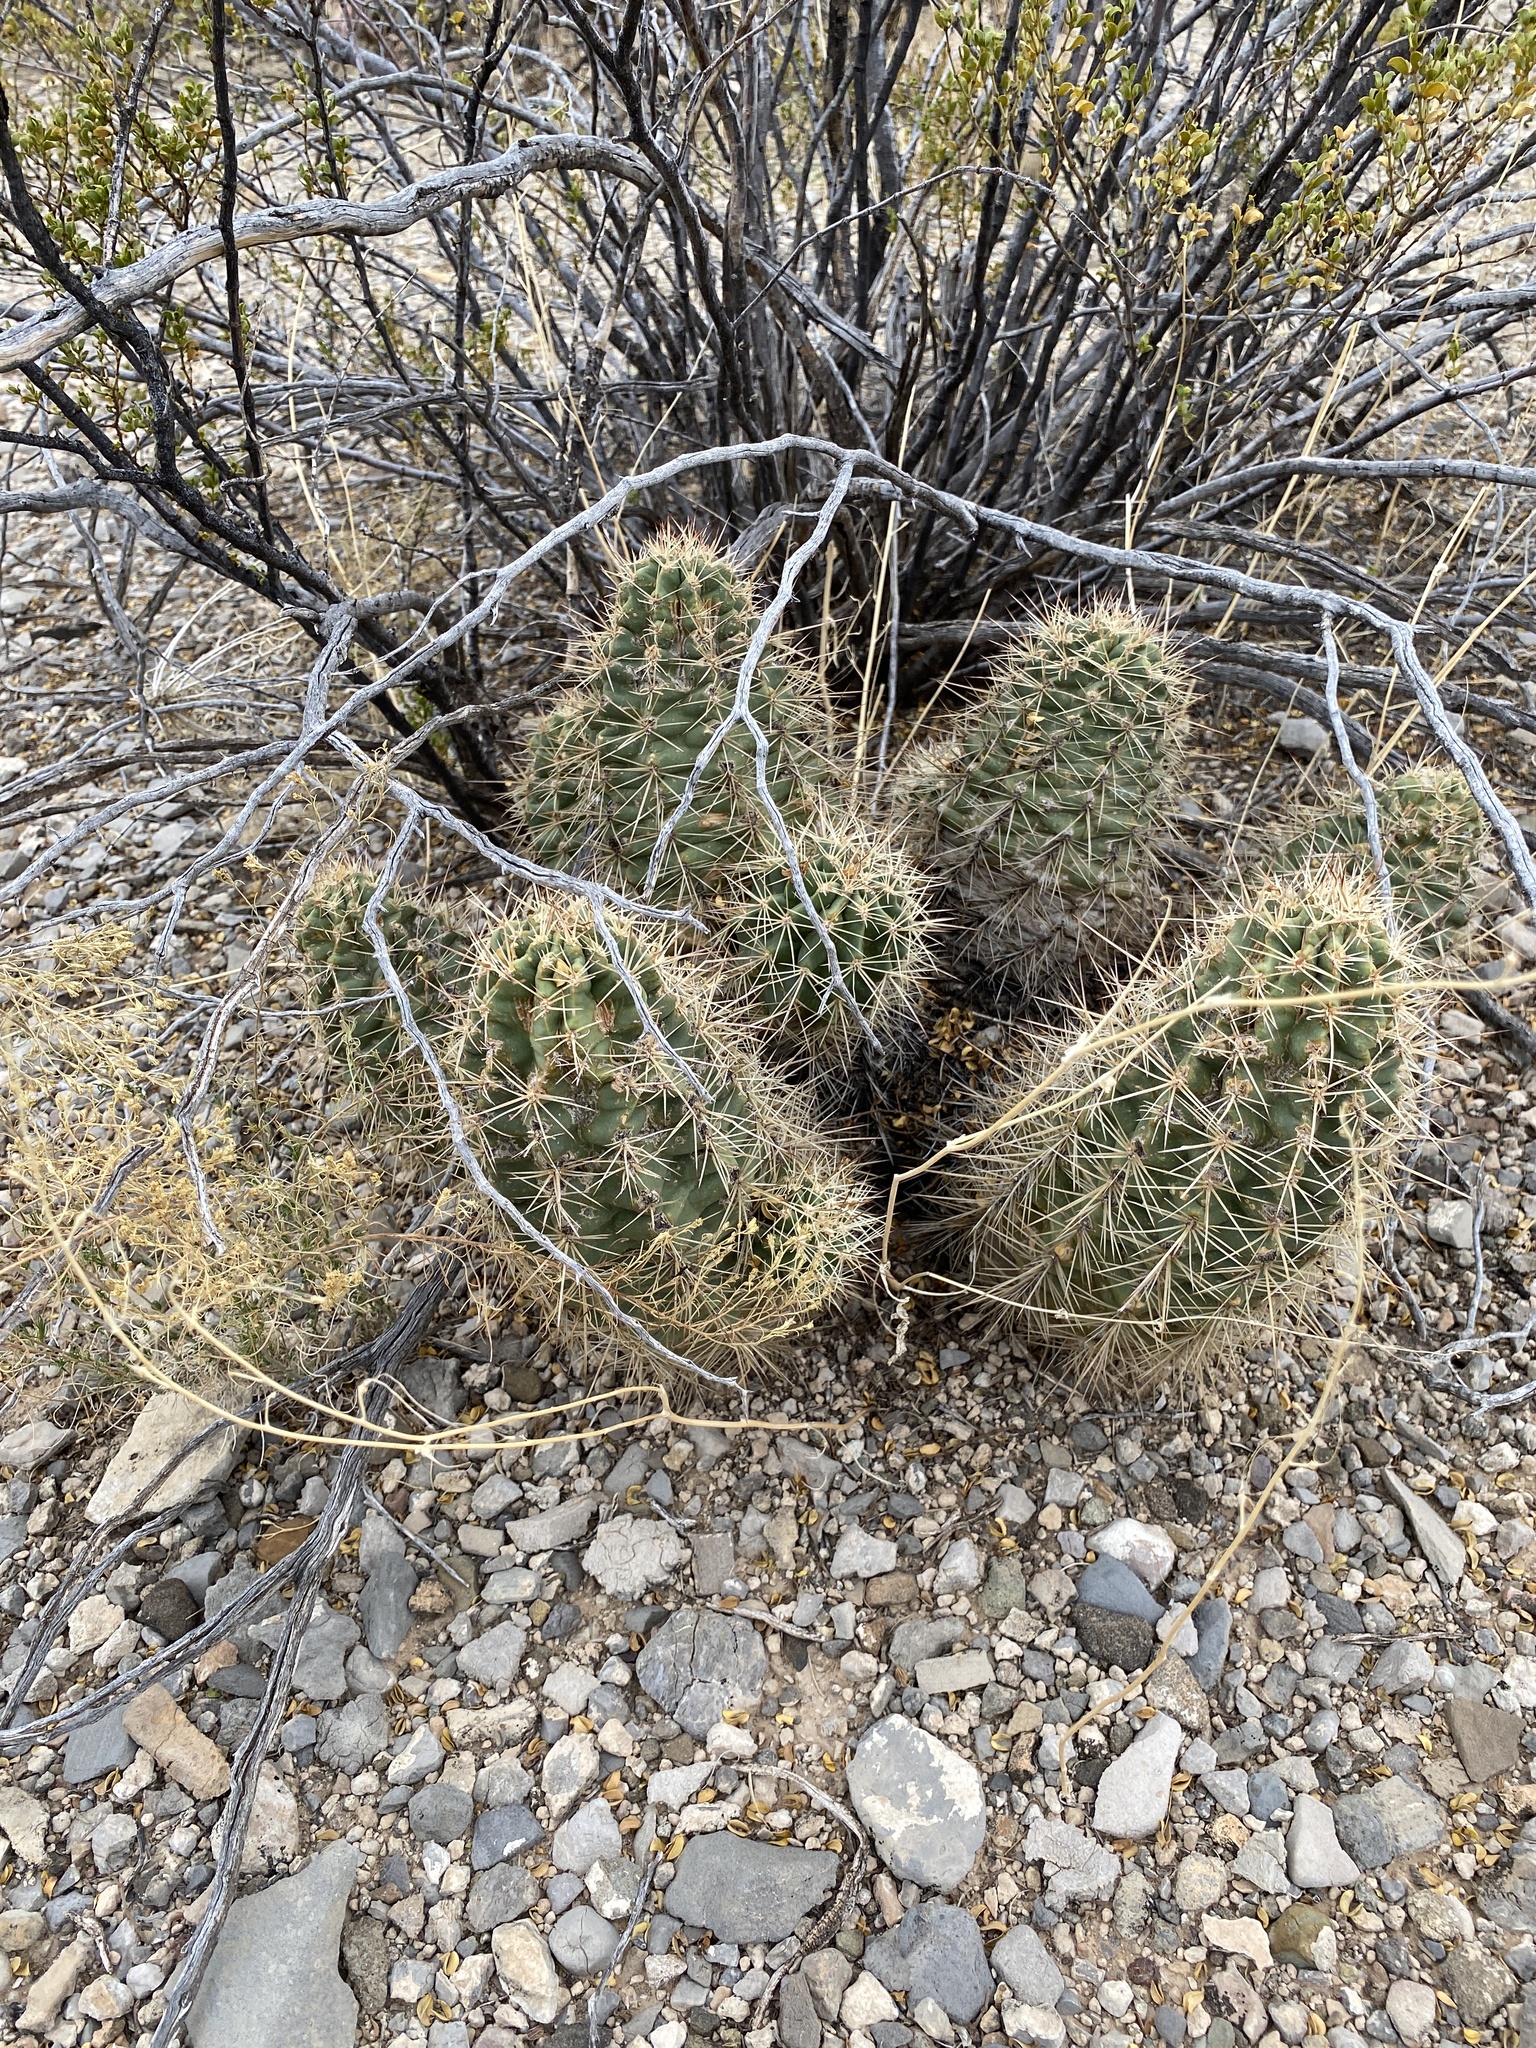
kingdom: Plantae
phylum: Tracheophyta
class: Magnoliopsida
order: Caryophyllales
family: Cactaceae
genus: Echinocereus
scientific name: Echinocereus coccineus
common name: Scarlet hedgehog cactus
